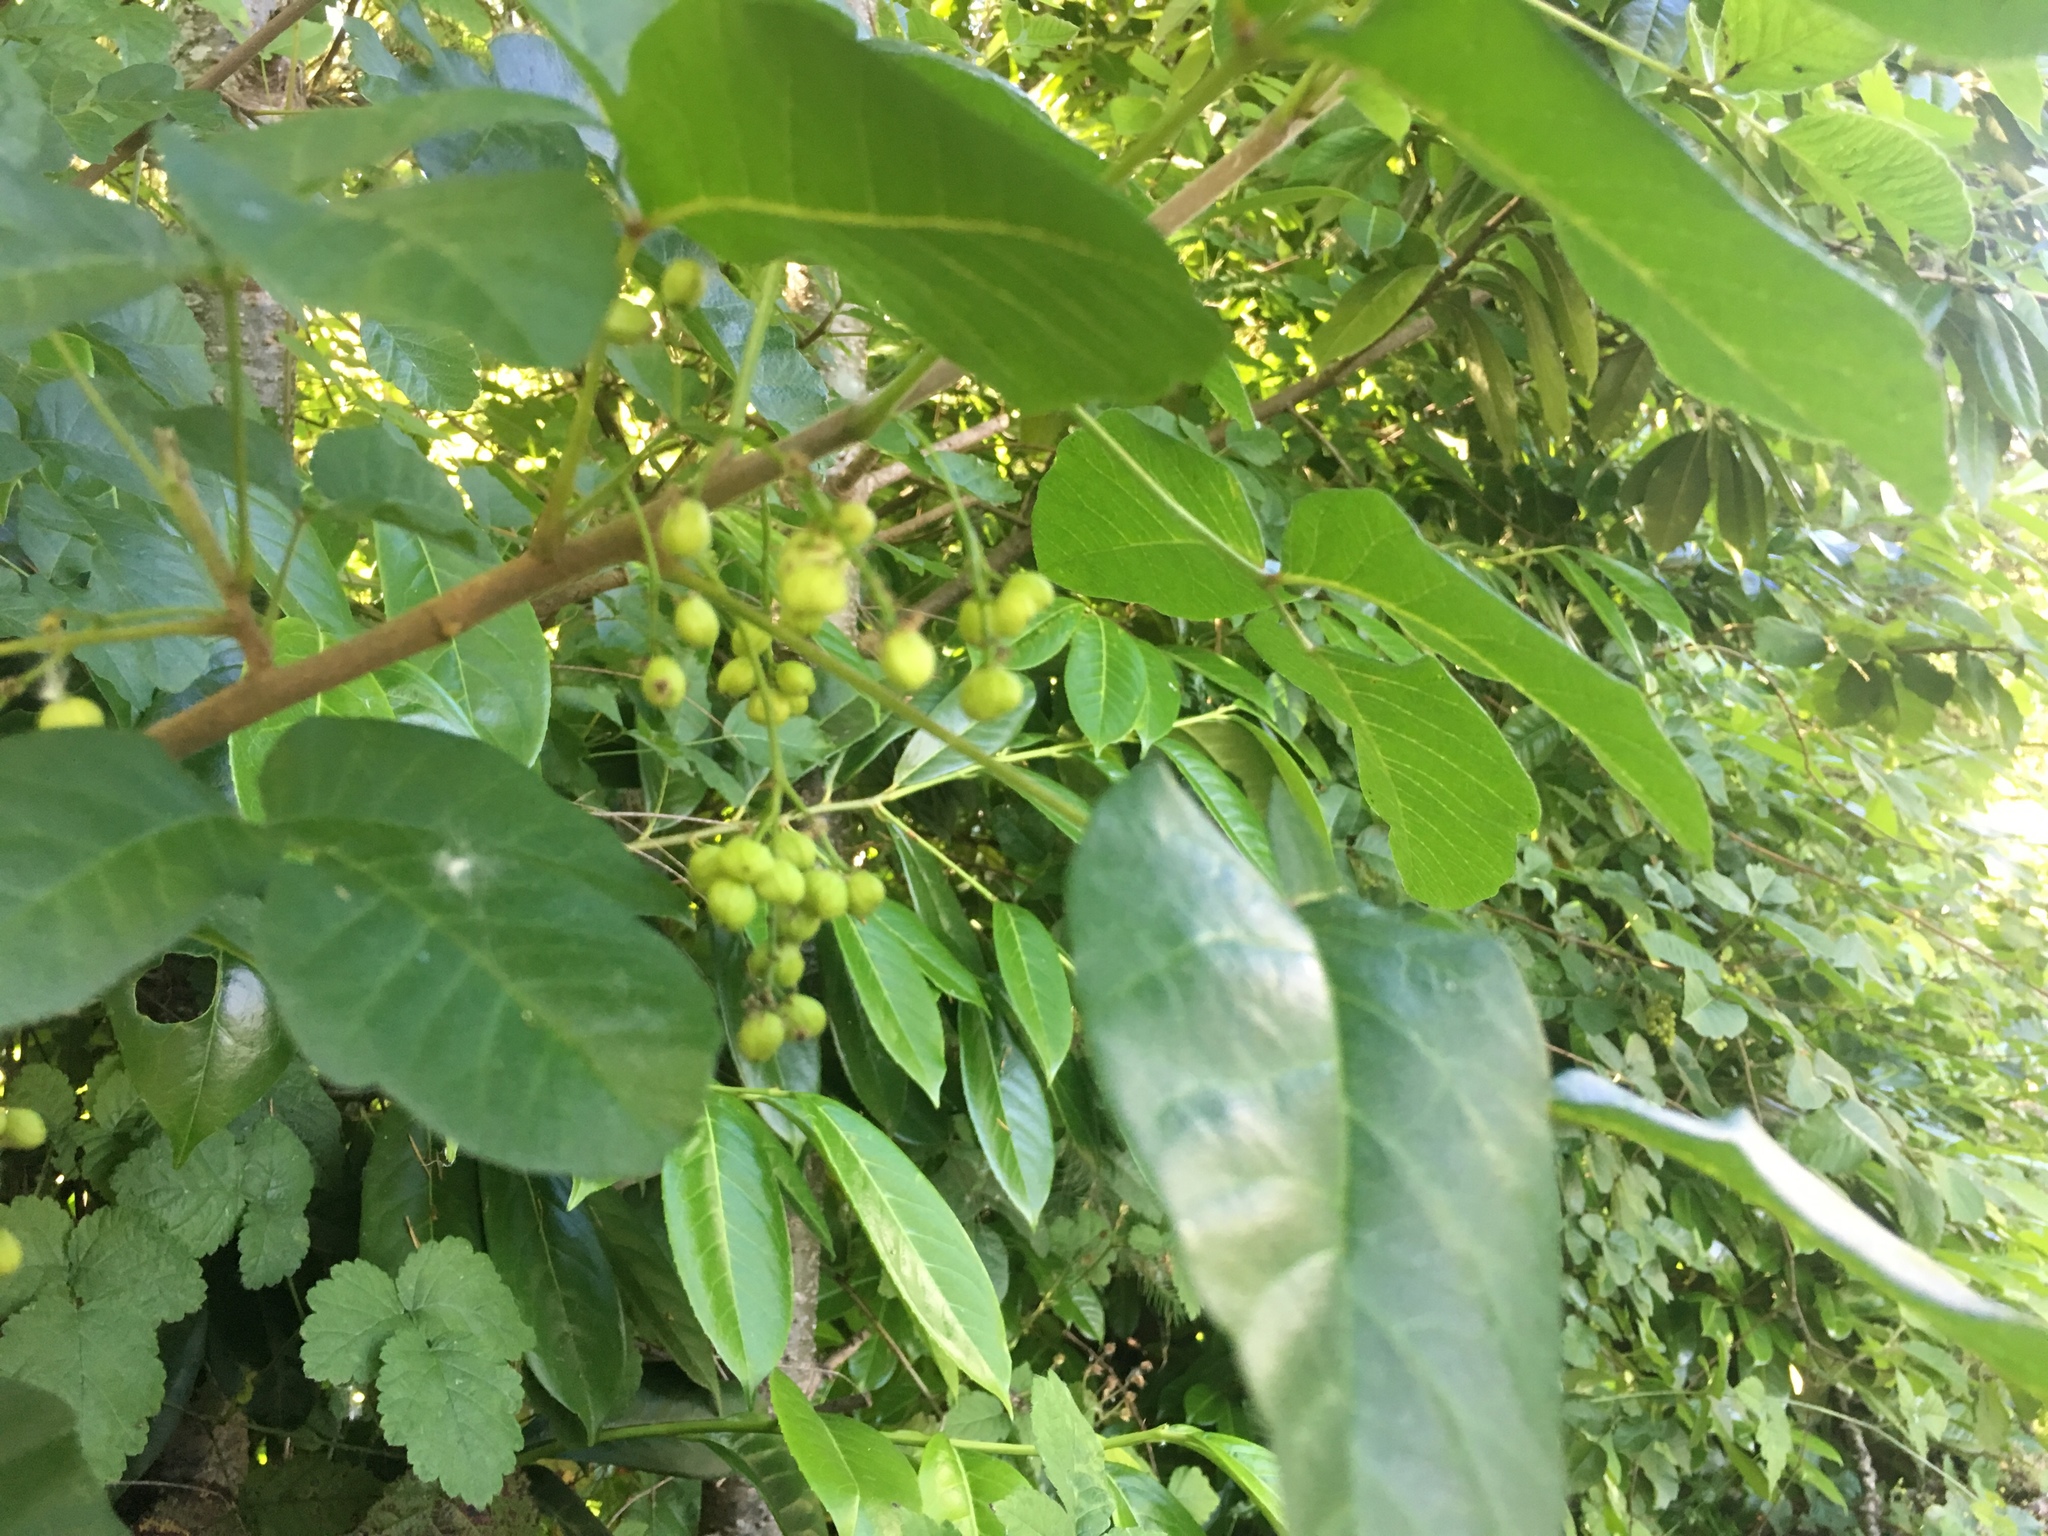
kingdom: Plantae
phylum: Tracheophyta
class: Magnoliopsida
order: Sapindales
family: Anacardiaceae
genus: Toxicodendron
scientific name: Toxicodendron diversilobum
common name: Pacific poison-oak
